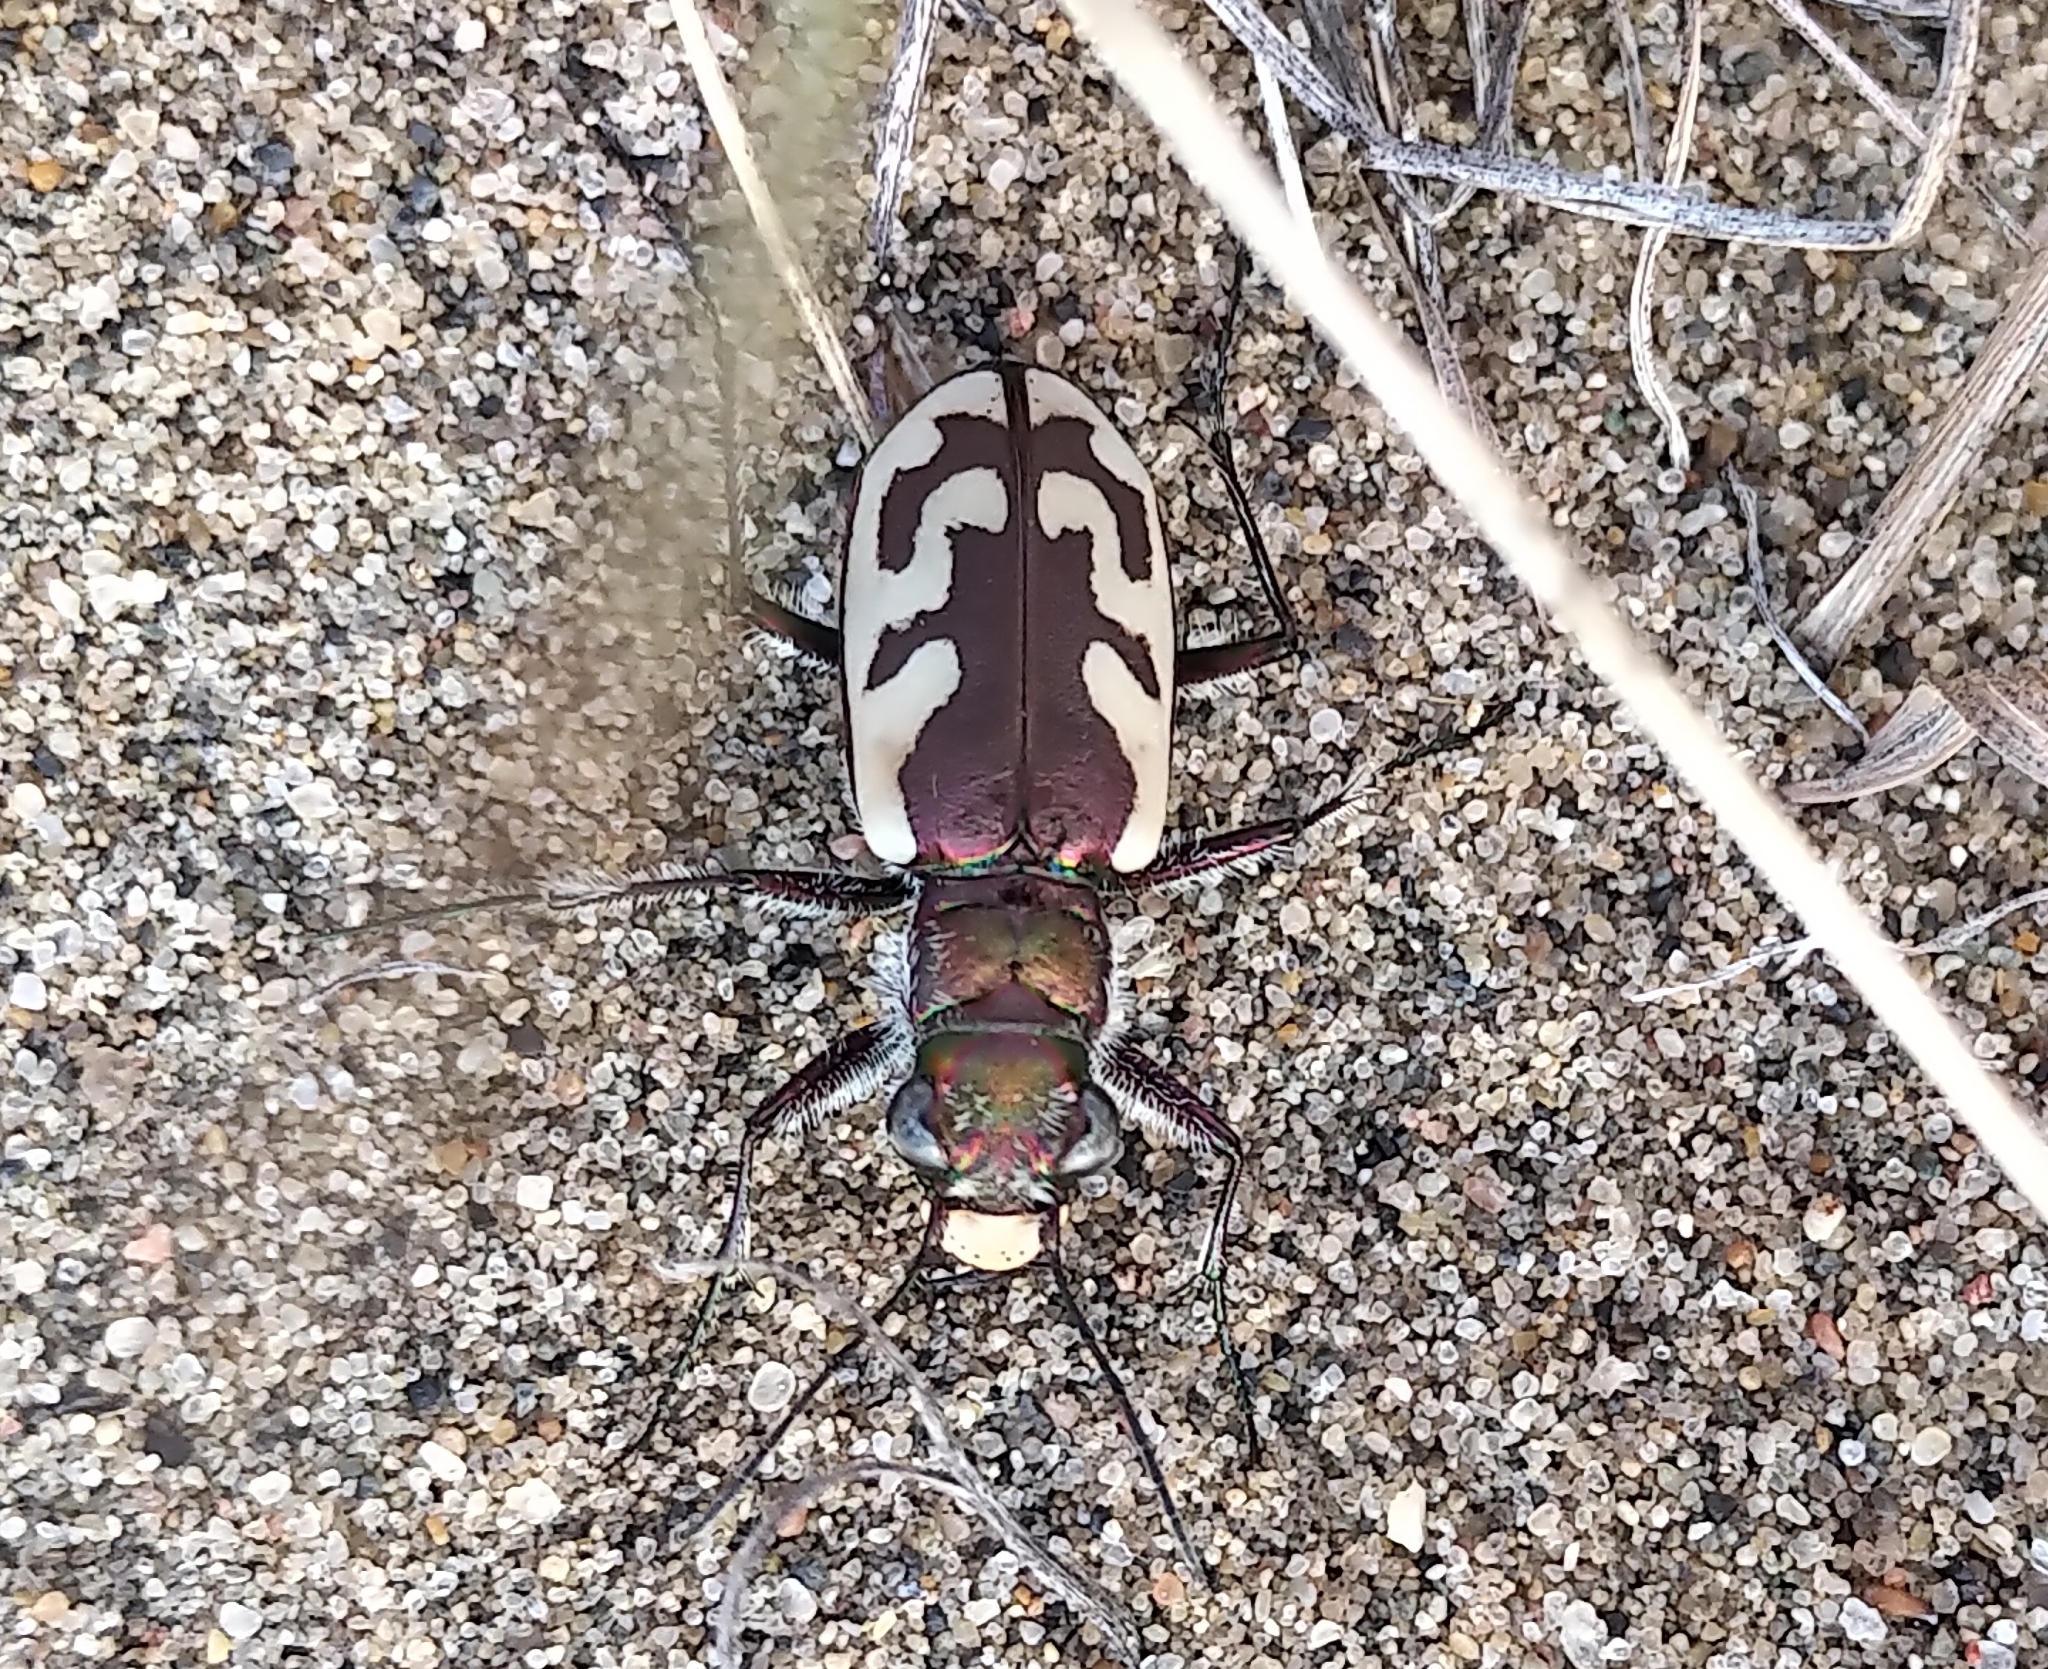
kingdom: Animalia
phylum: Arthropoda
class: Insecta
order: Coleoptera
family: Carabidae
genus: Cicindela
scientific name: Cicindela lengi
